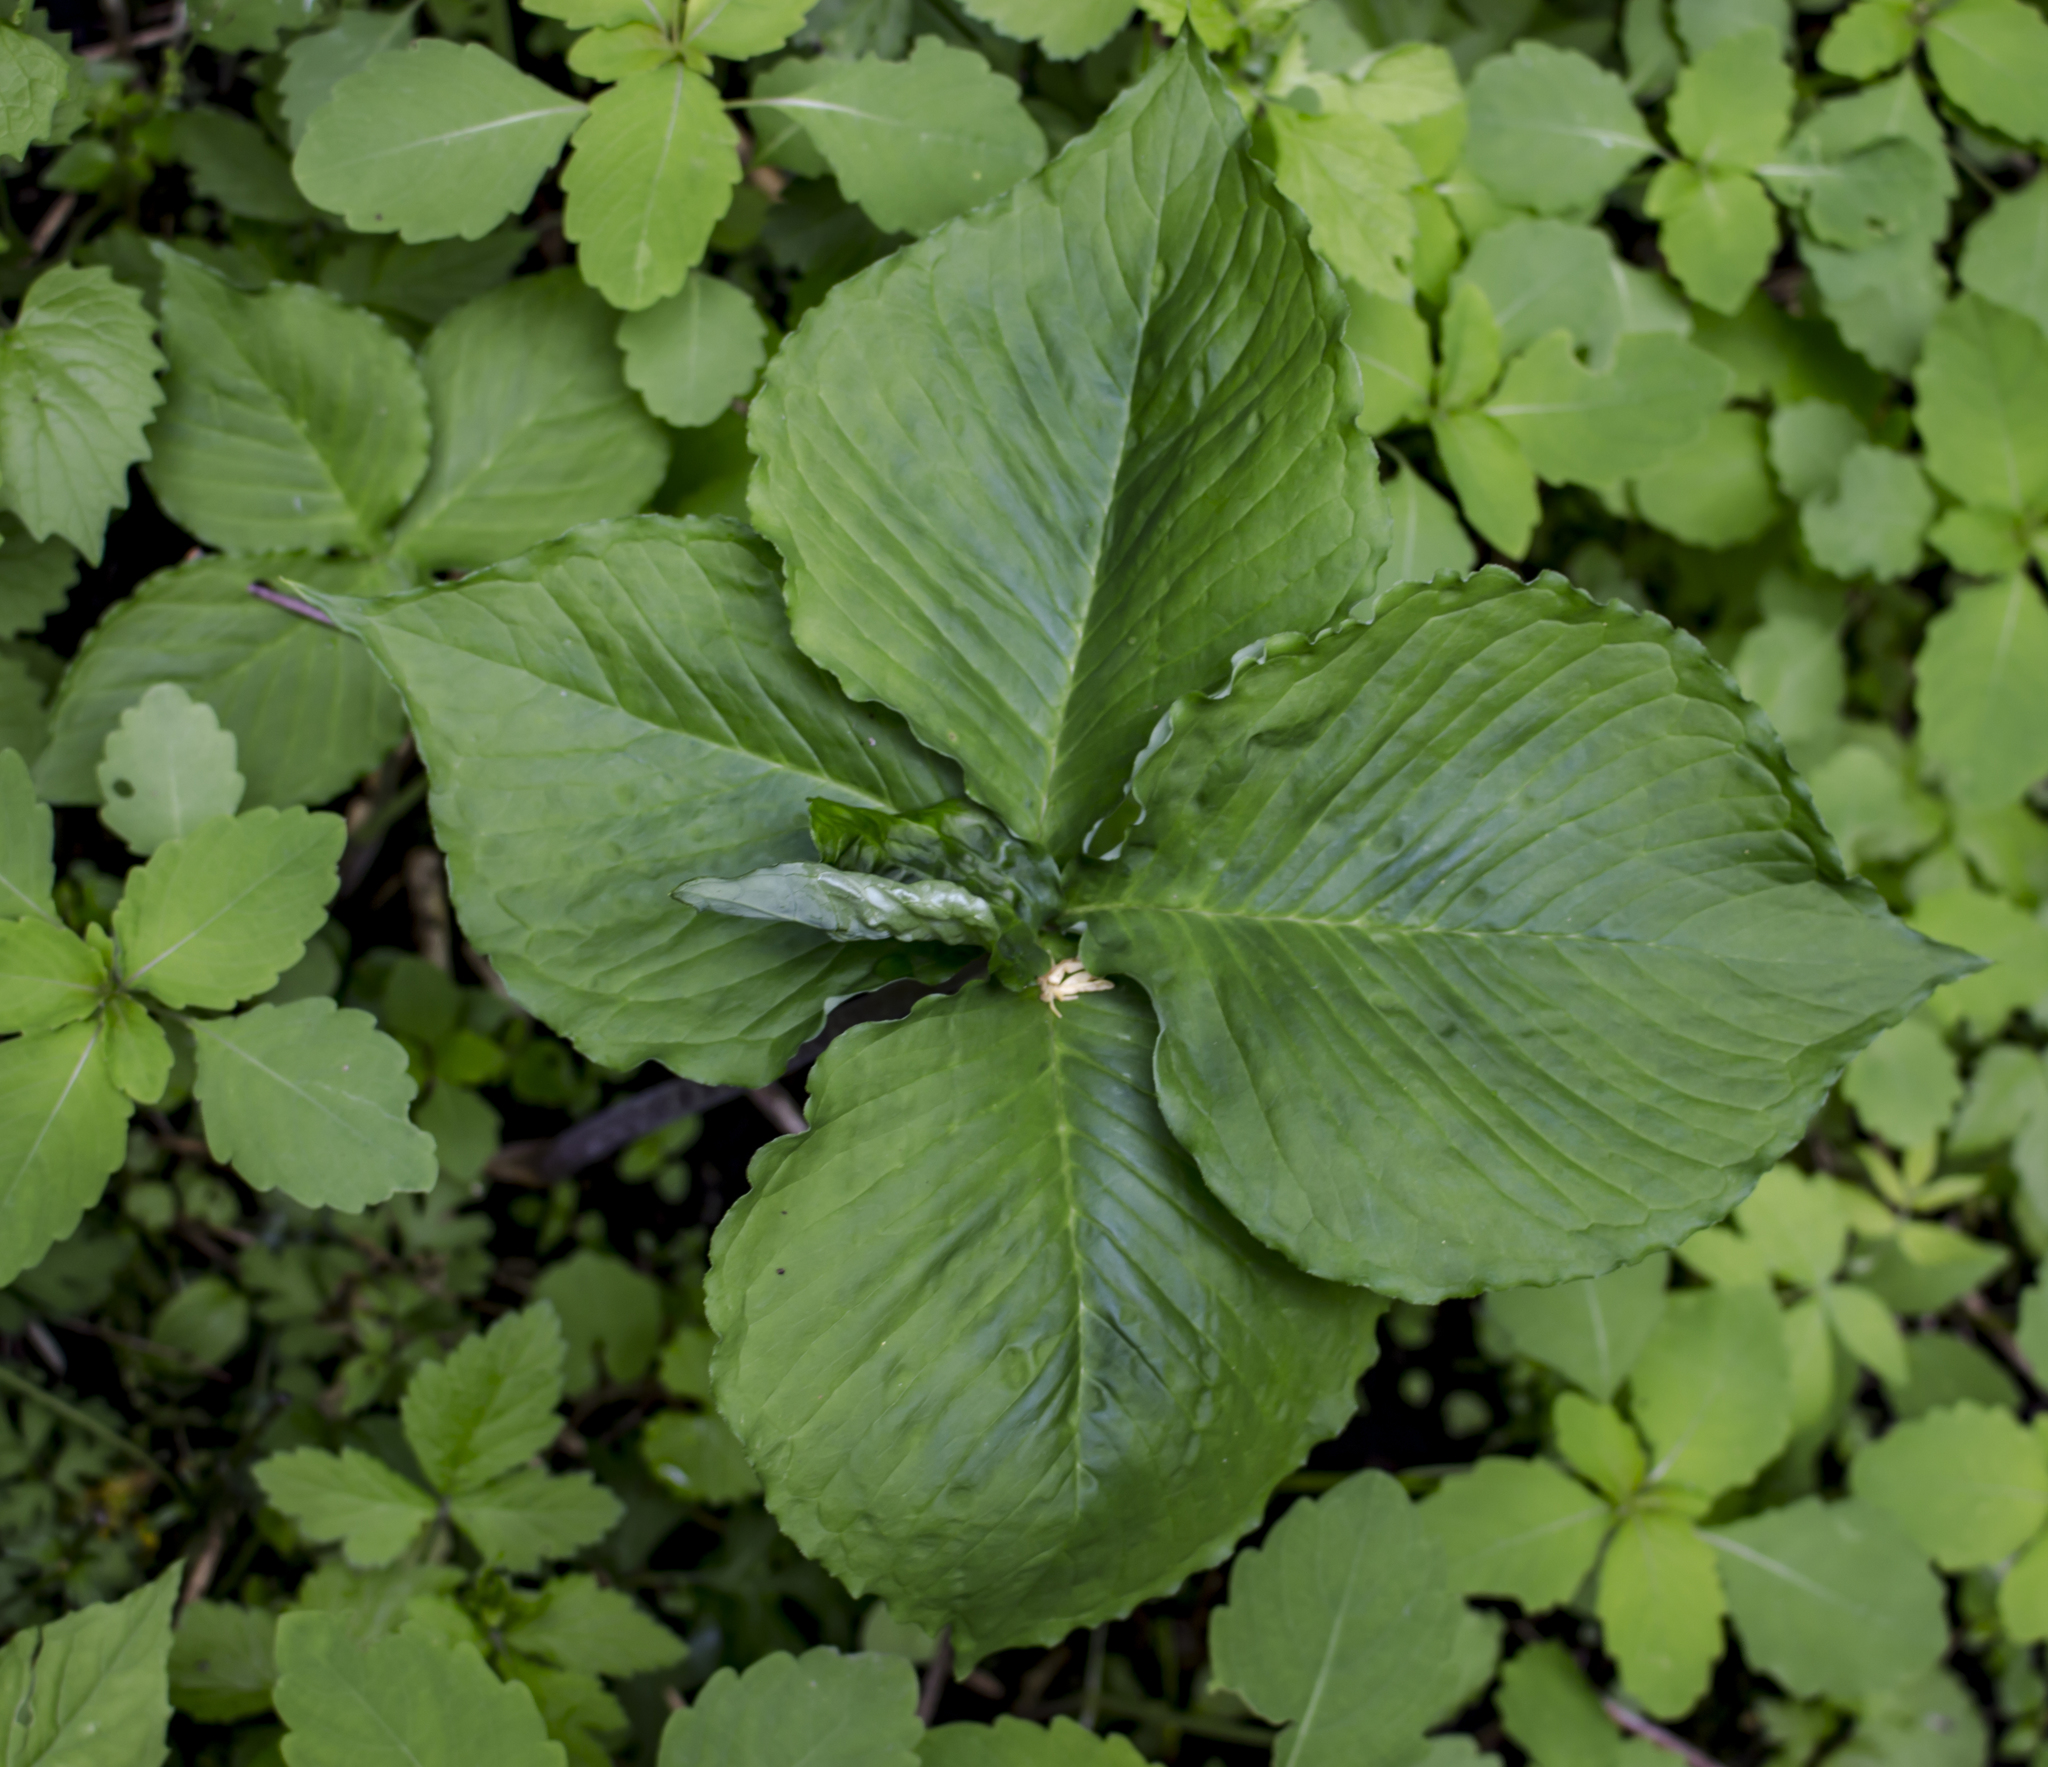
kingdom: Plantae
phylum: Tracheophyta
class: Liliopsida
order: Alismatales
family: Araceae
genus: Arisaema
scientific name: Arisaema triphyllum
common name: Jack-in-the-pulpit
